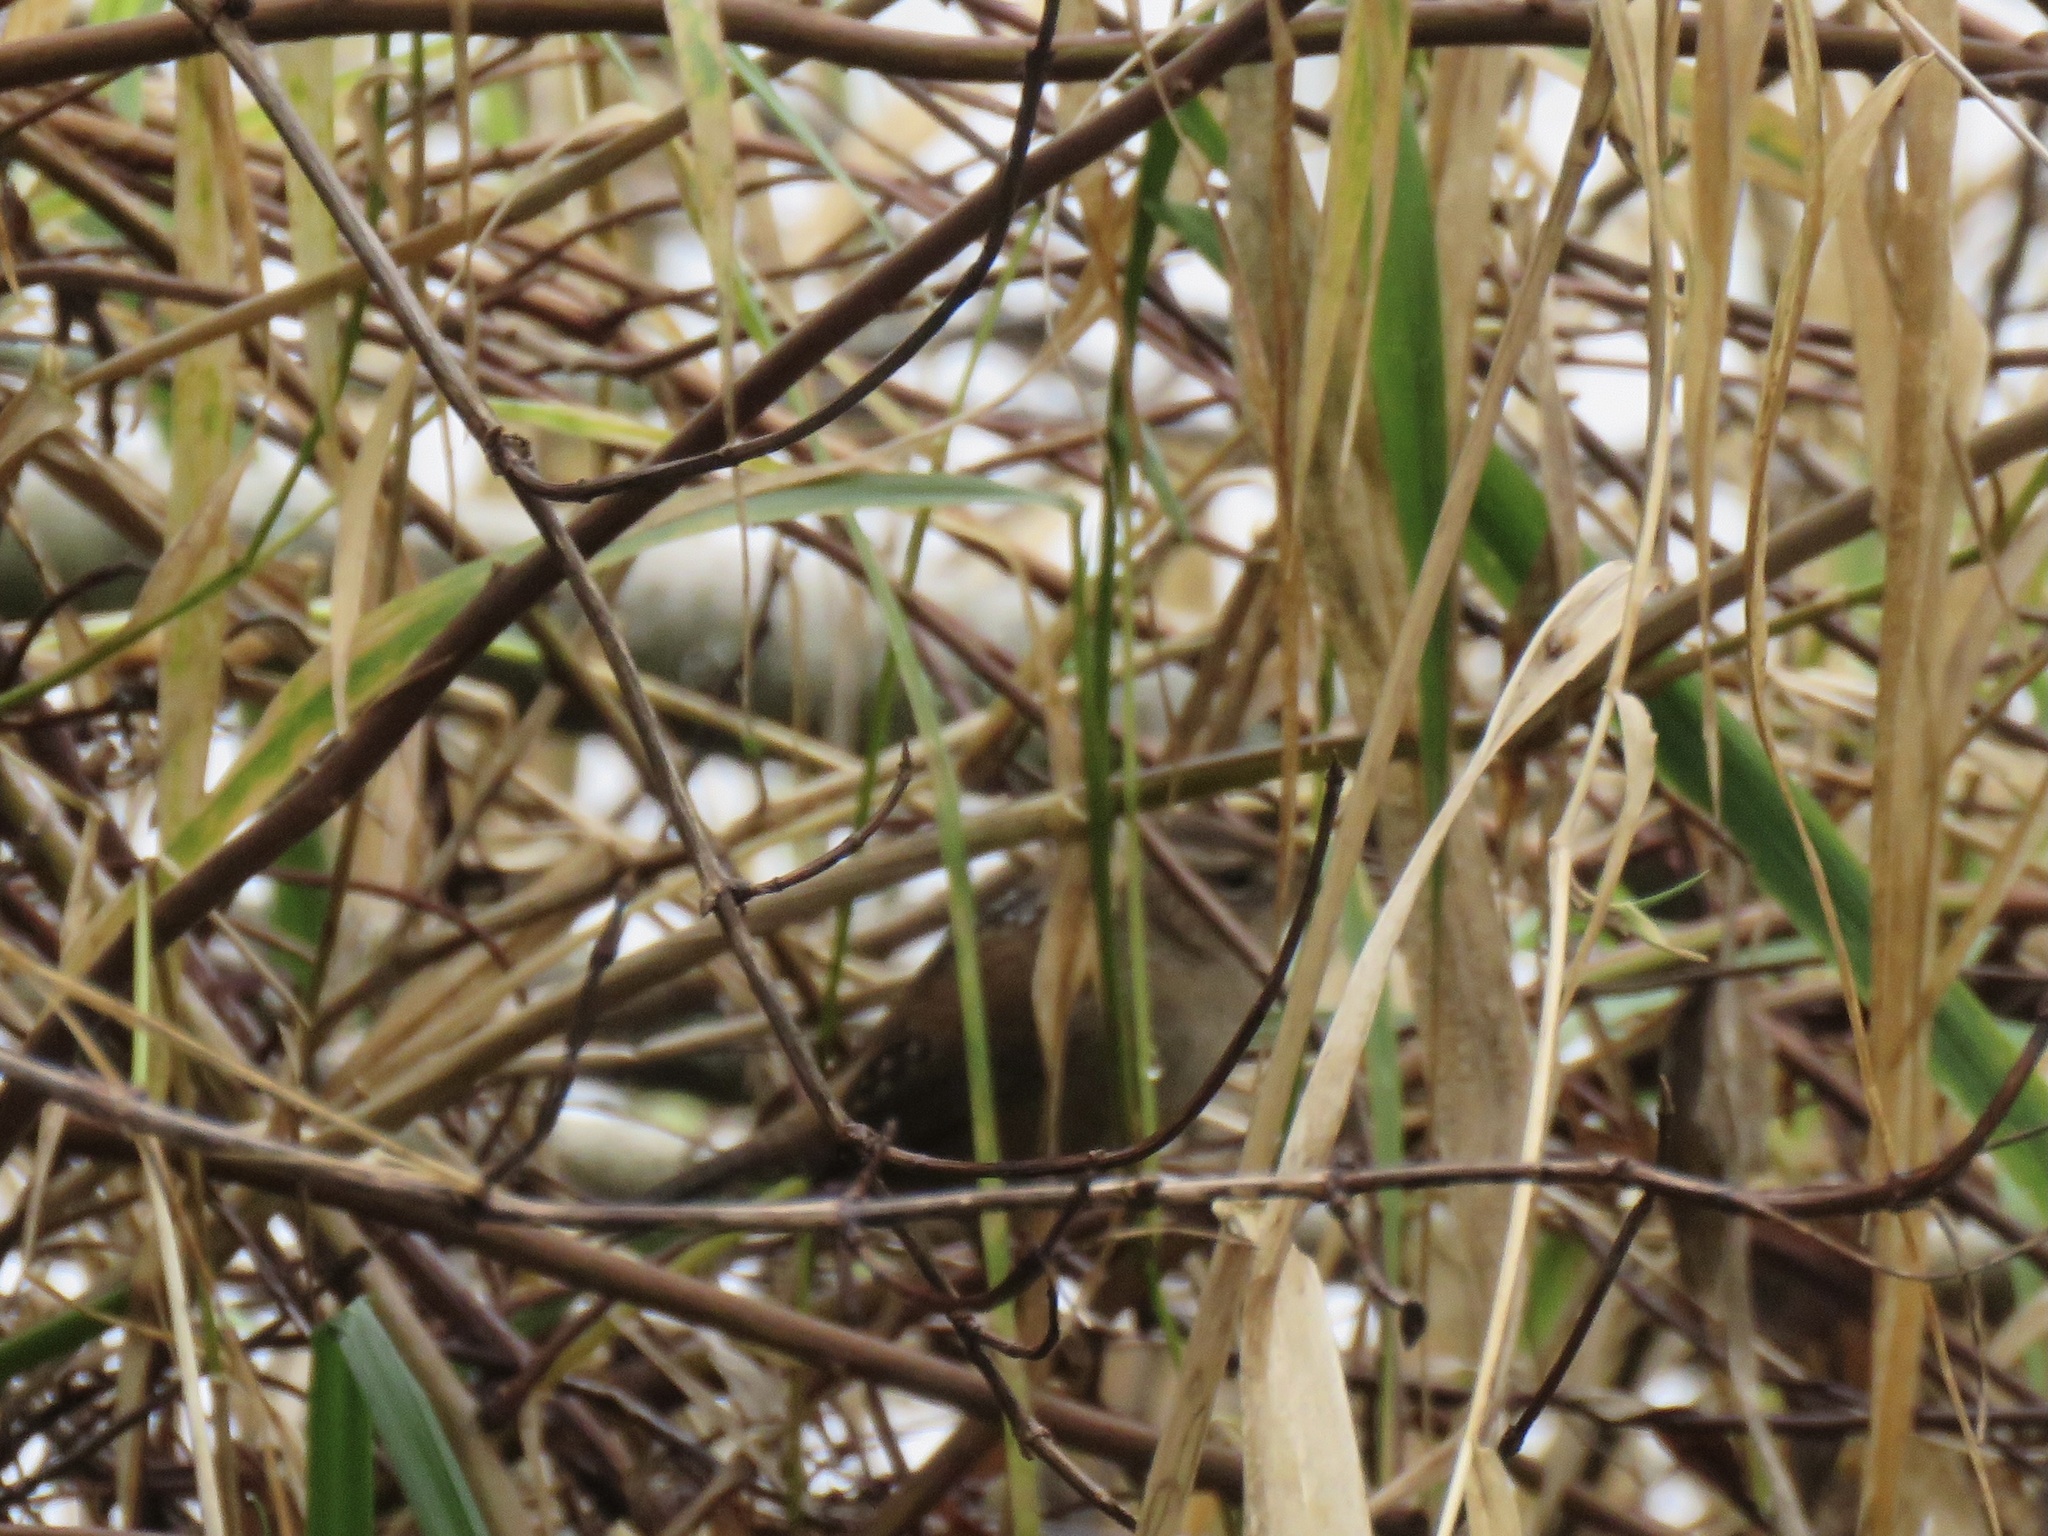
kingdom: Animalia
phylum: Chordata
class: Aves
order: Passeriformes
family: Troglodytidae
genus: Cistothorus
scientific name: Cistothorus palustris
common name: Marsh wren
